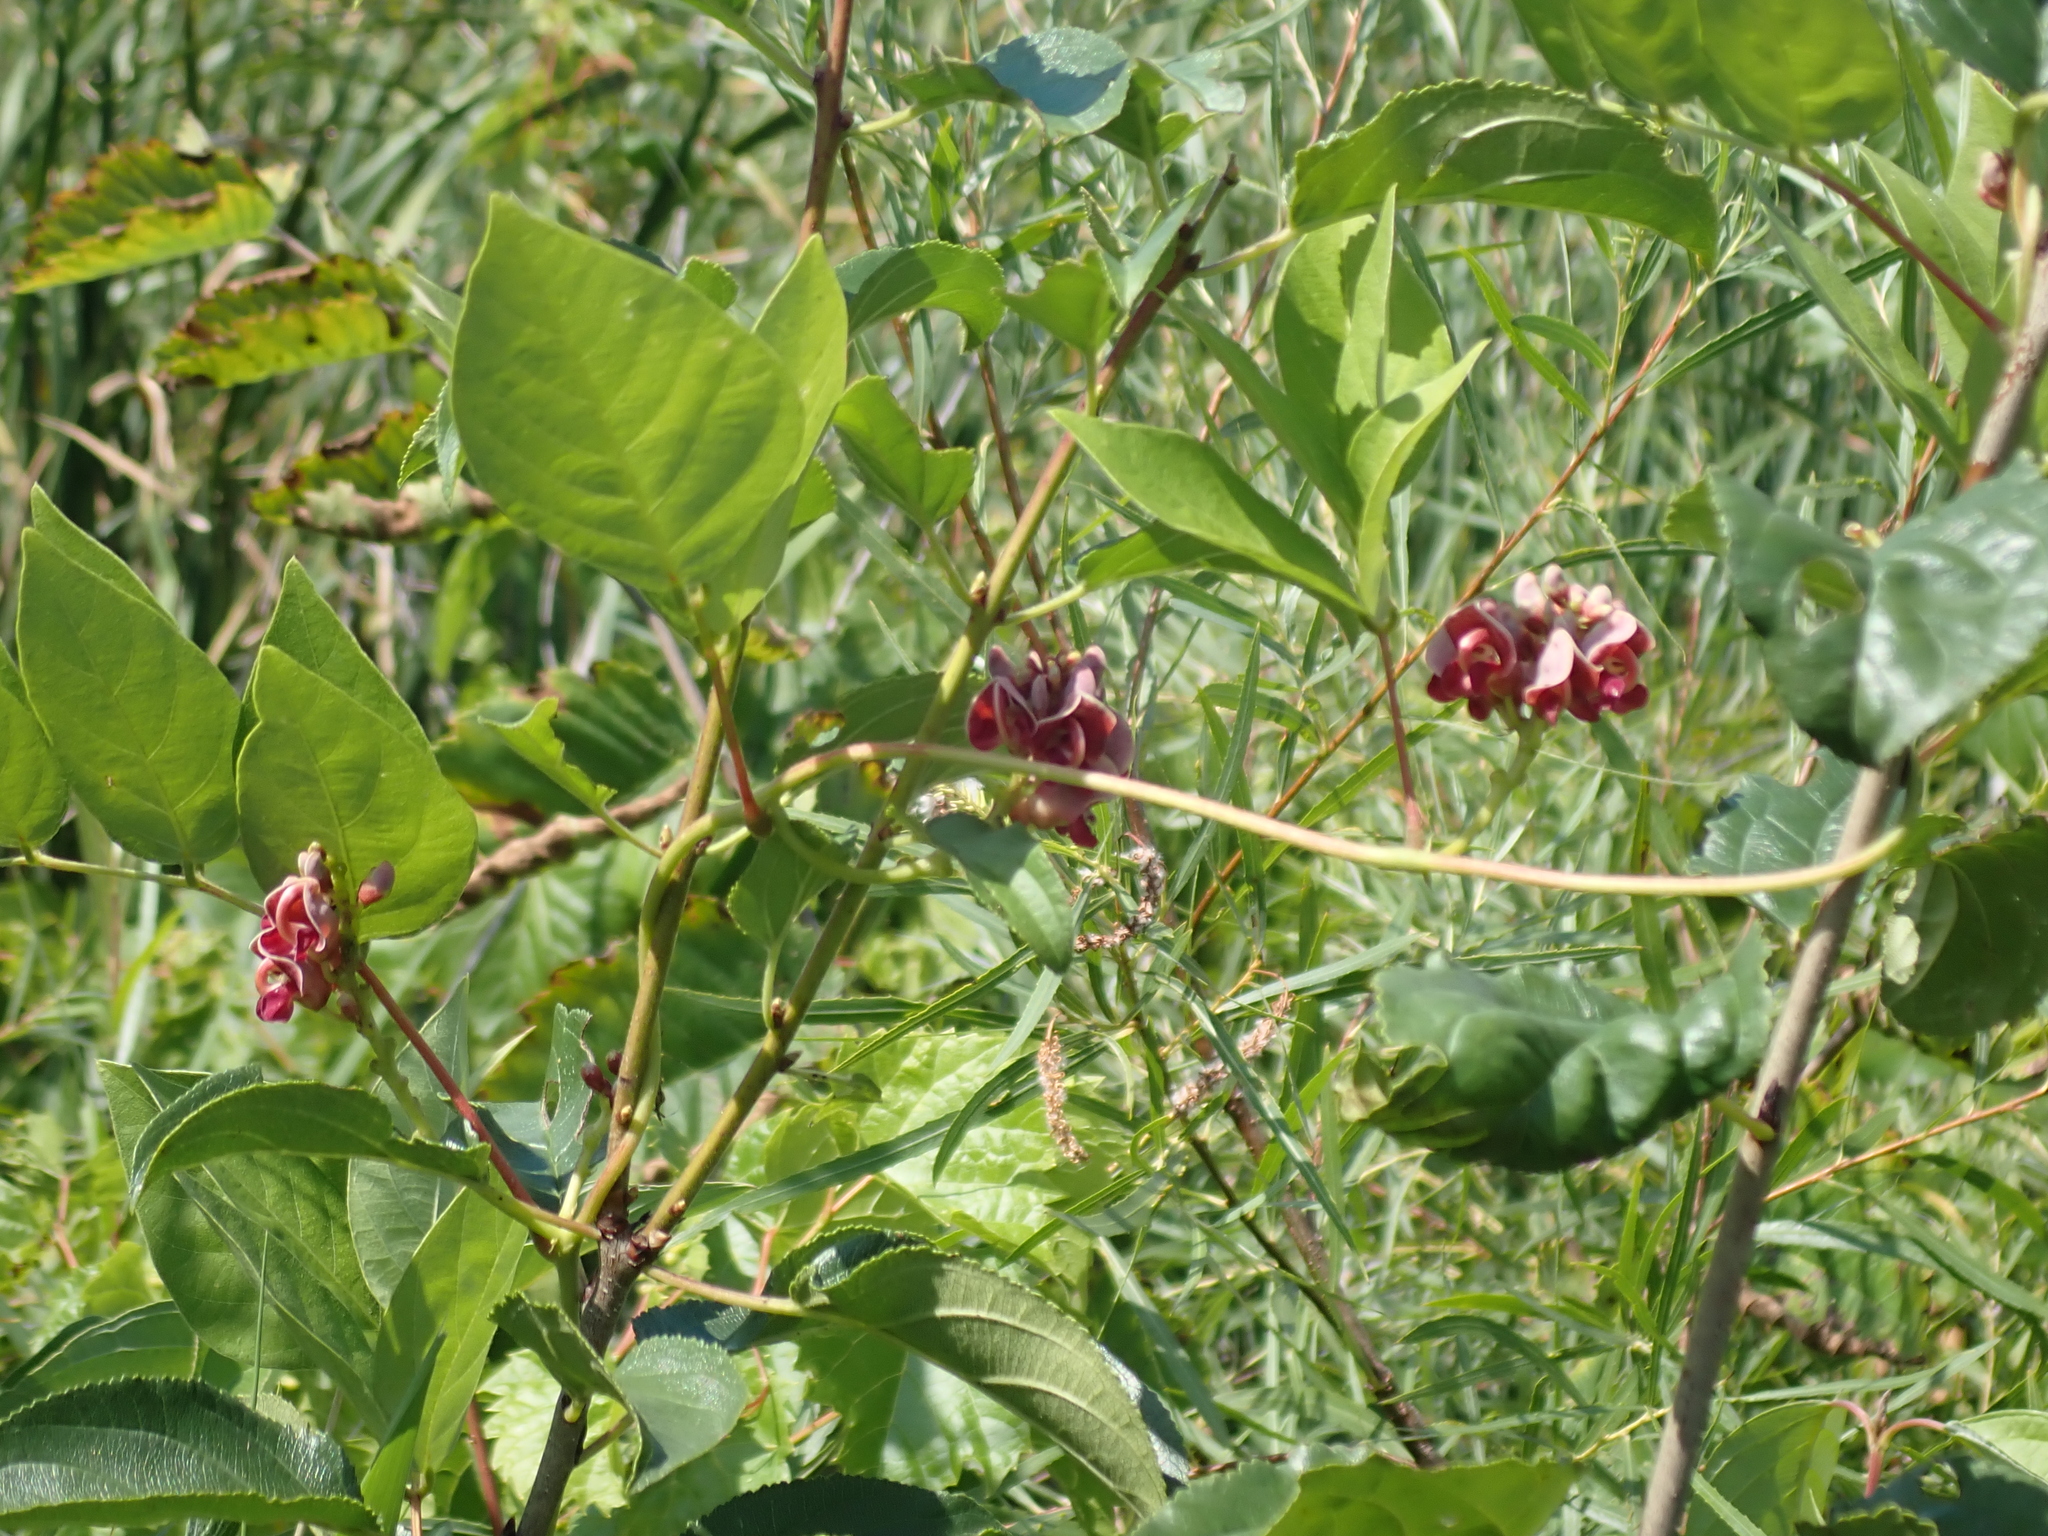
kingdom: Plantae
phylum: Tracheophyta
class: Magnoliopsida
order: Fabales
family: Fabaceae
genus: Apios
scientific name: Apios americana
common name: American potato-bean
